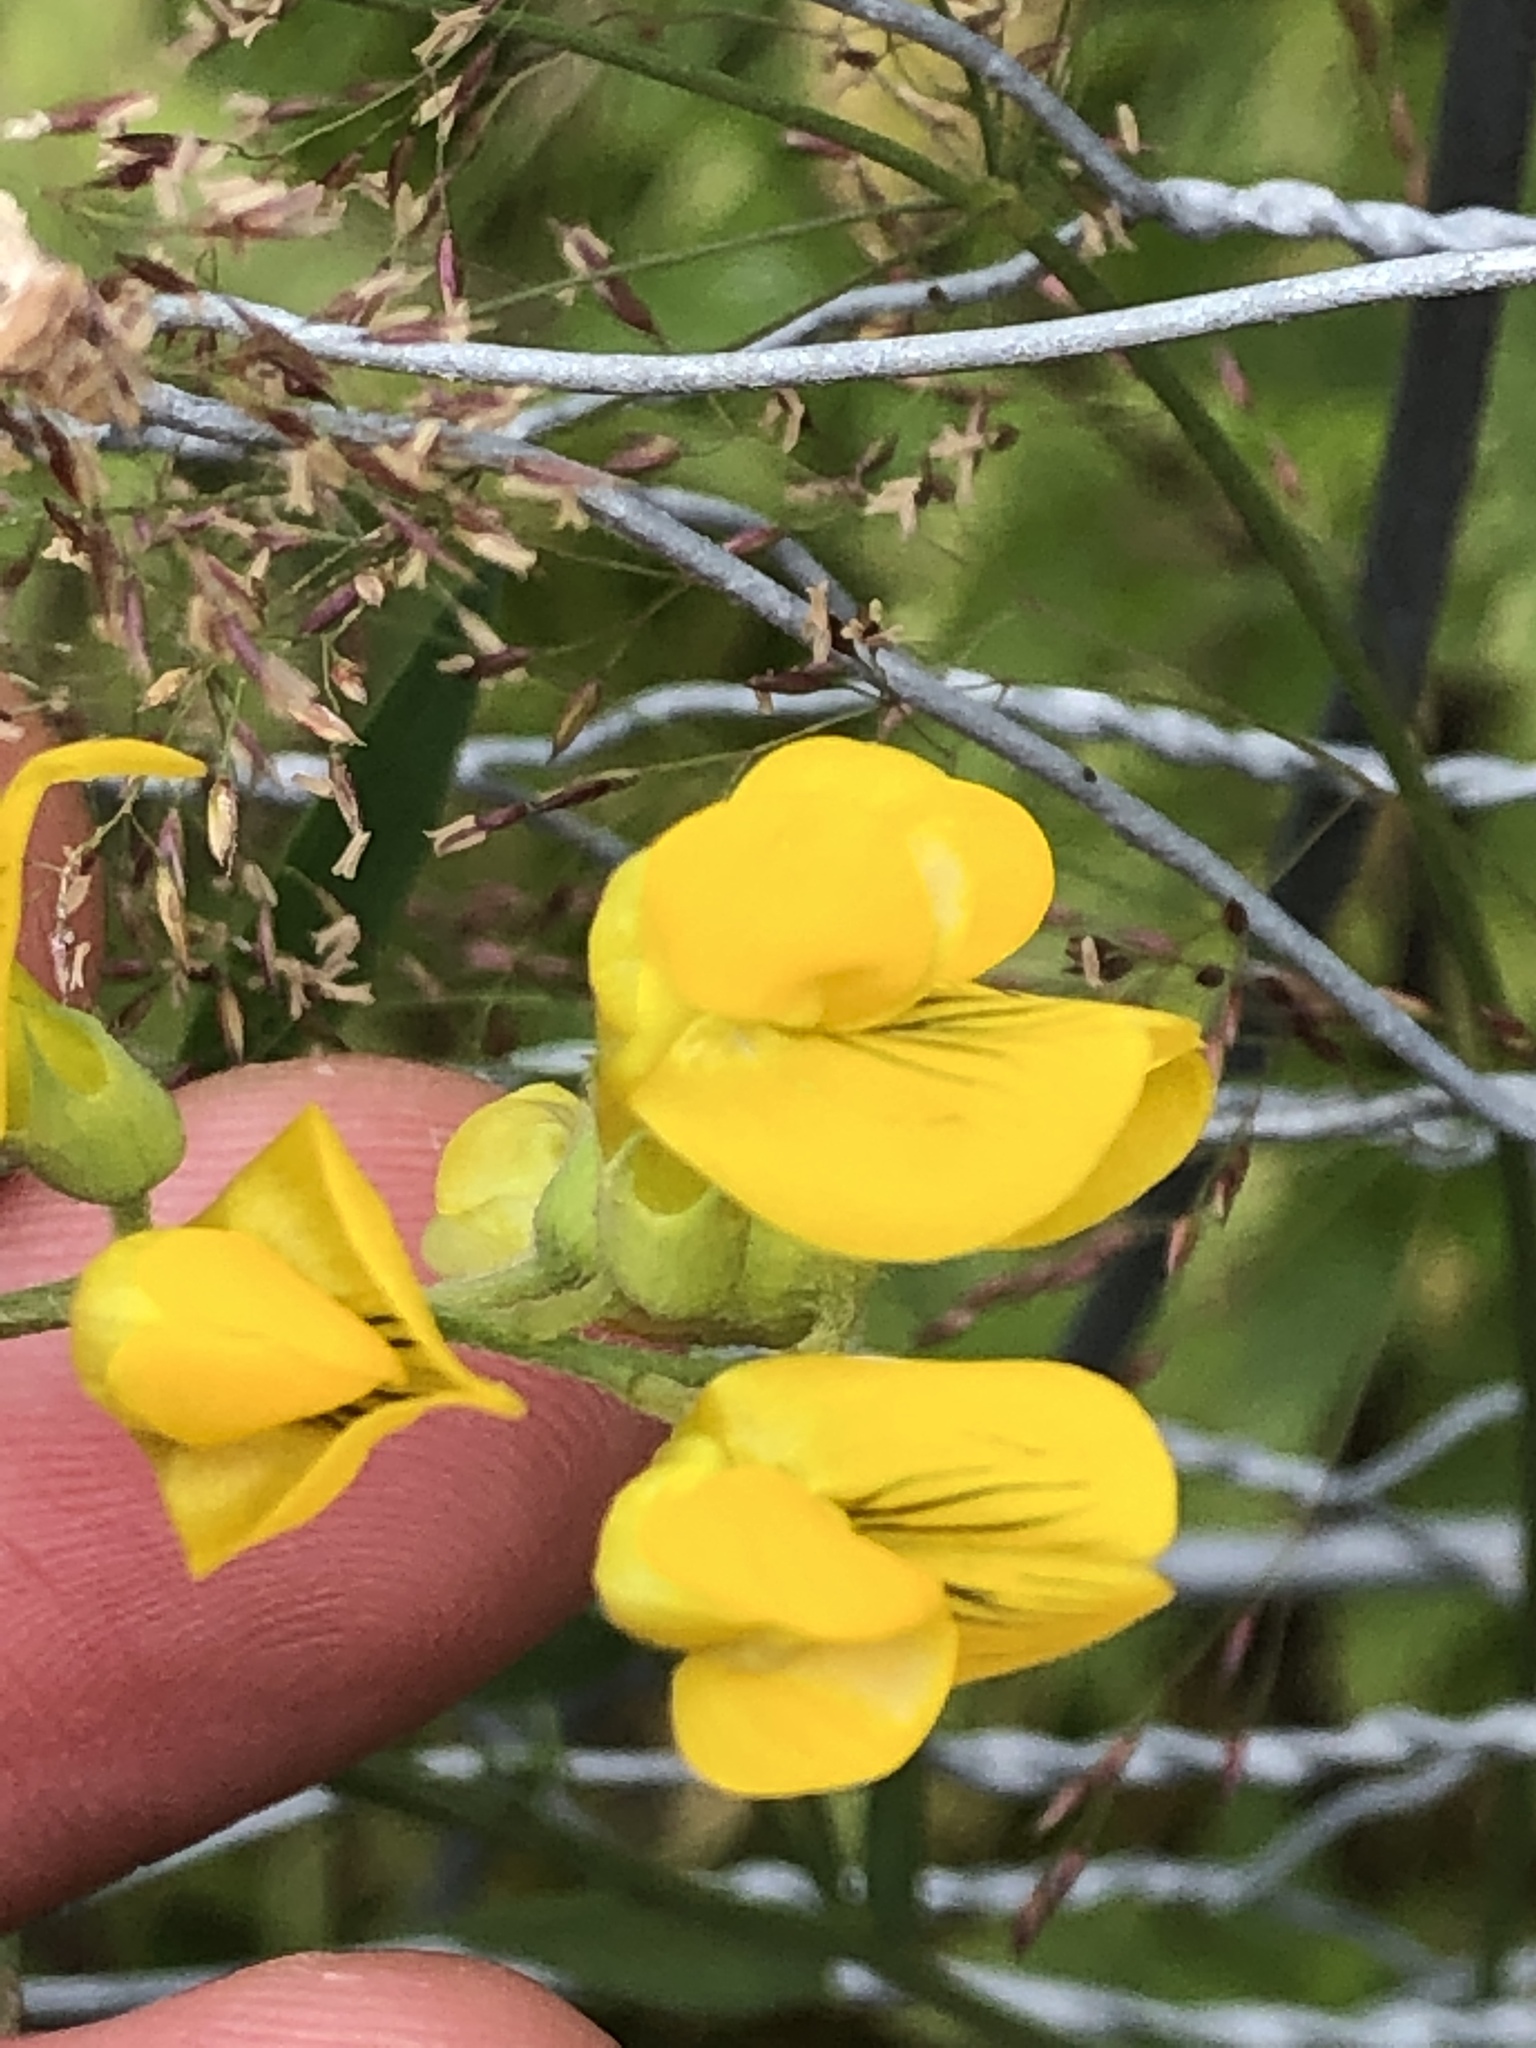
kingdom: Plantae
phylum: Tracheophyta
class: Magnoliopsida
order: Fabales
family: Fabaceae
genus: Lathyrus
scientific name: Lathyrus pratensis
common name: Meadow vetchling
